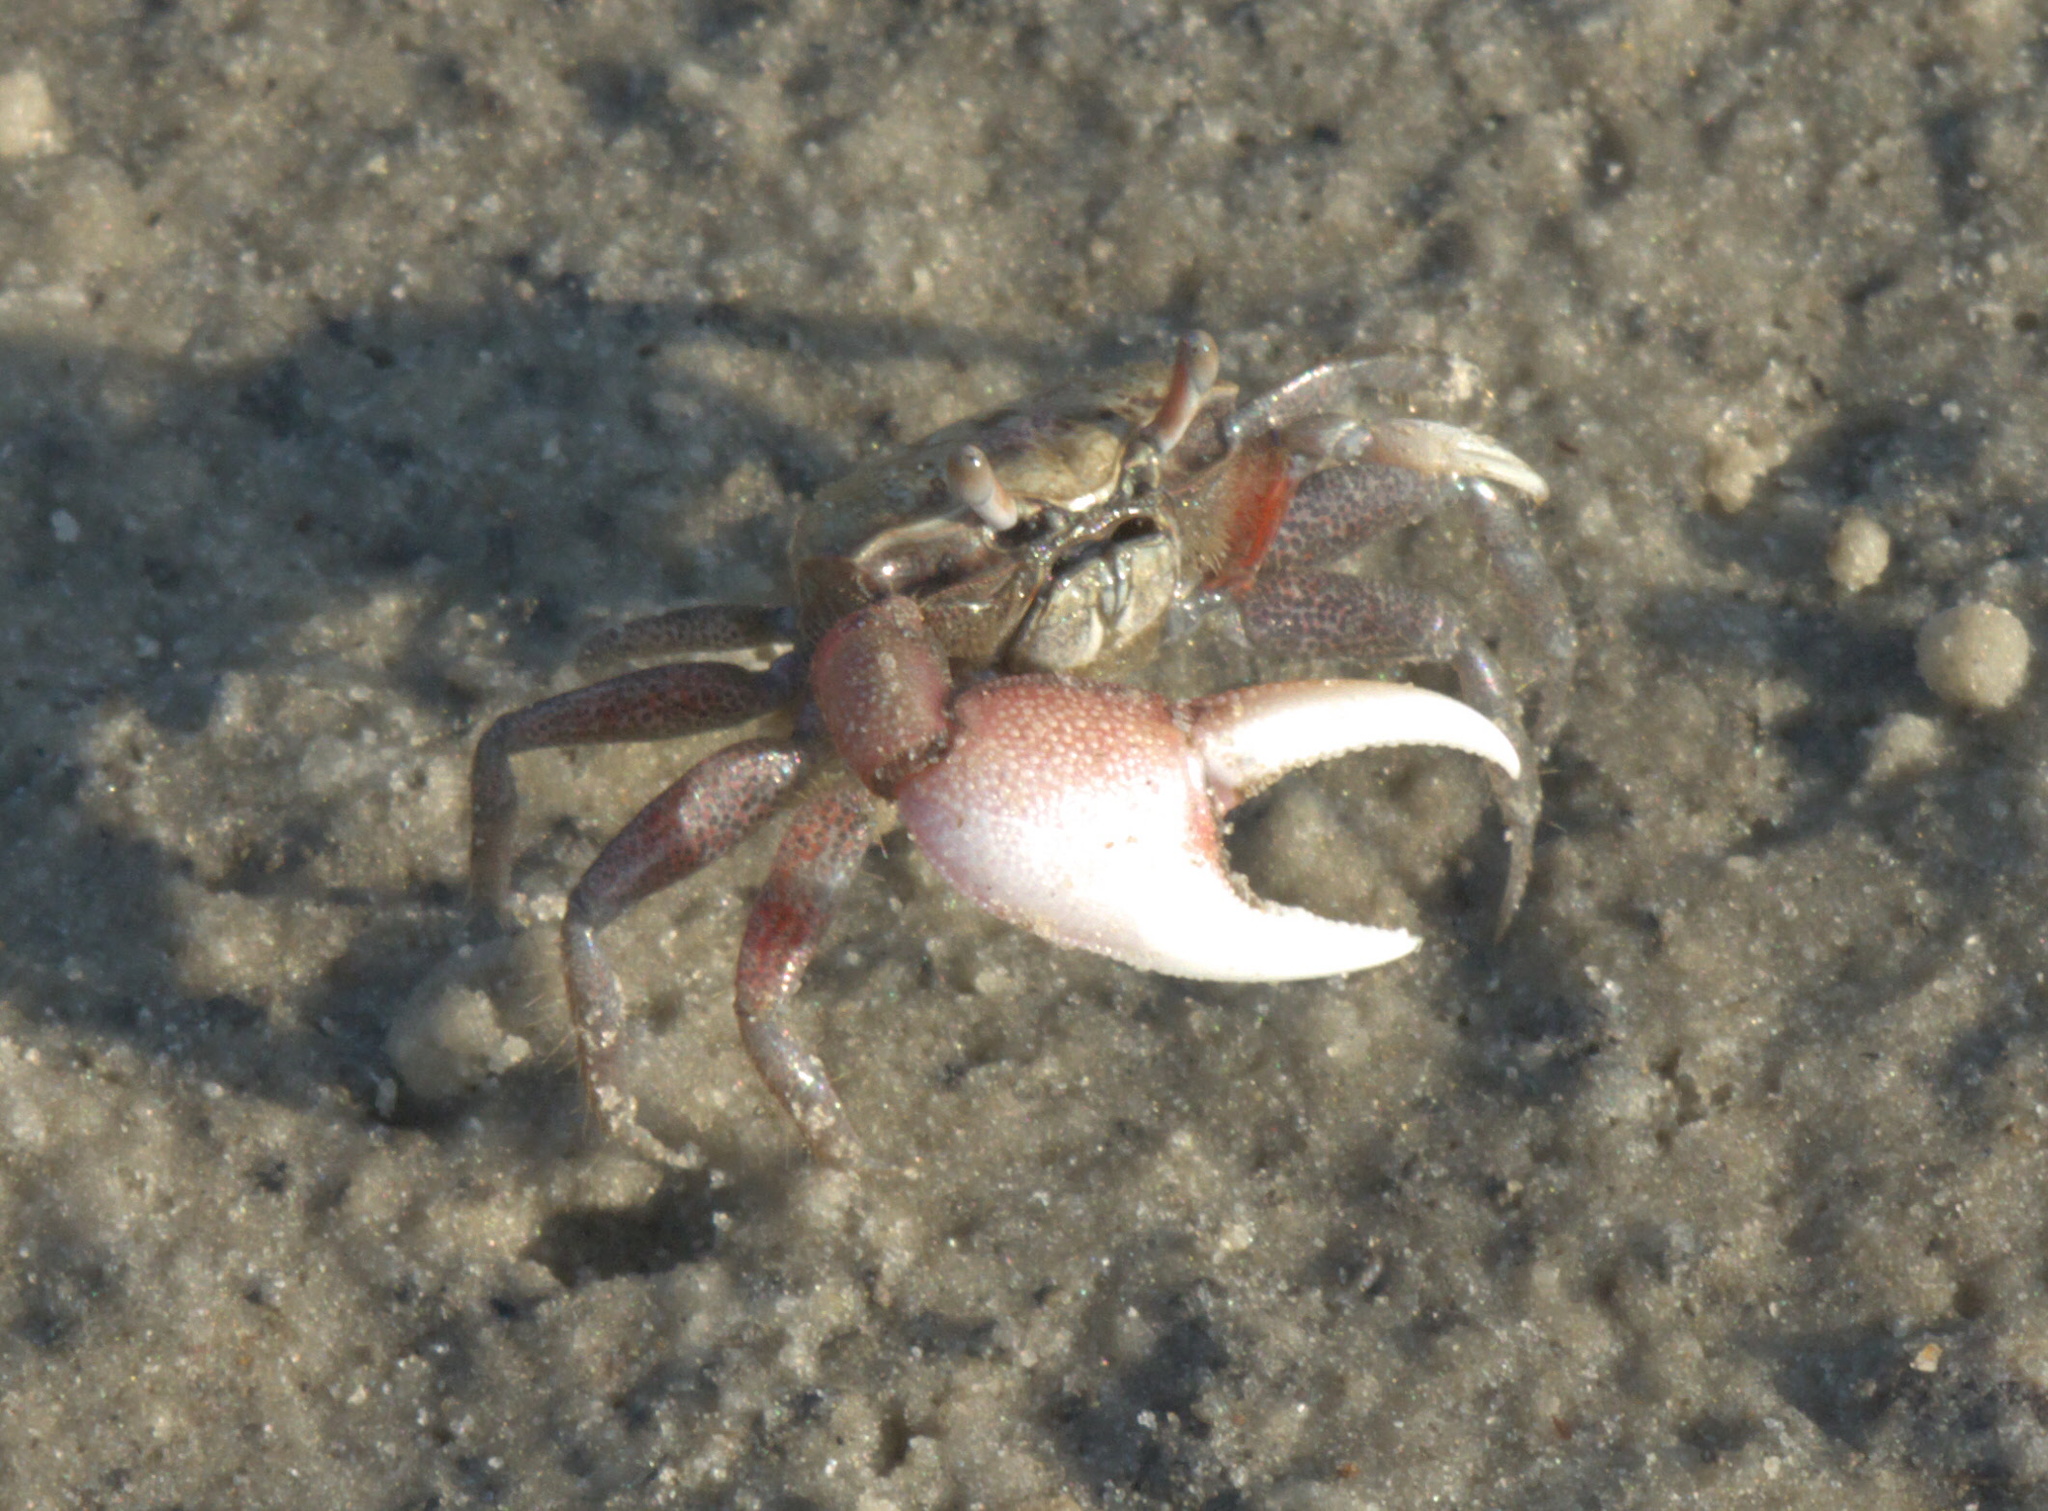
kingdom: Animalia
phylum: Arthropoda
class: Malacostraca
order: Decapoda
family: Ocypodidae
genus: Leptuca
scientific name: Leptuca pugilator
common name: Atlantic sand fiddler crab
